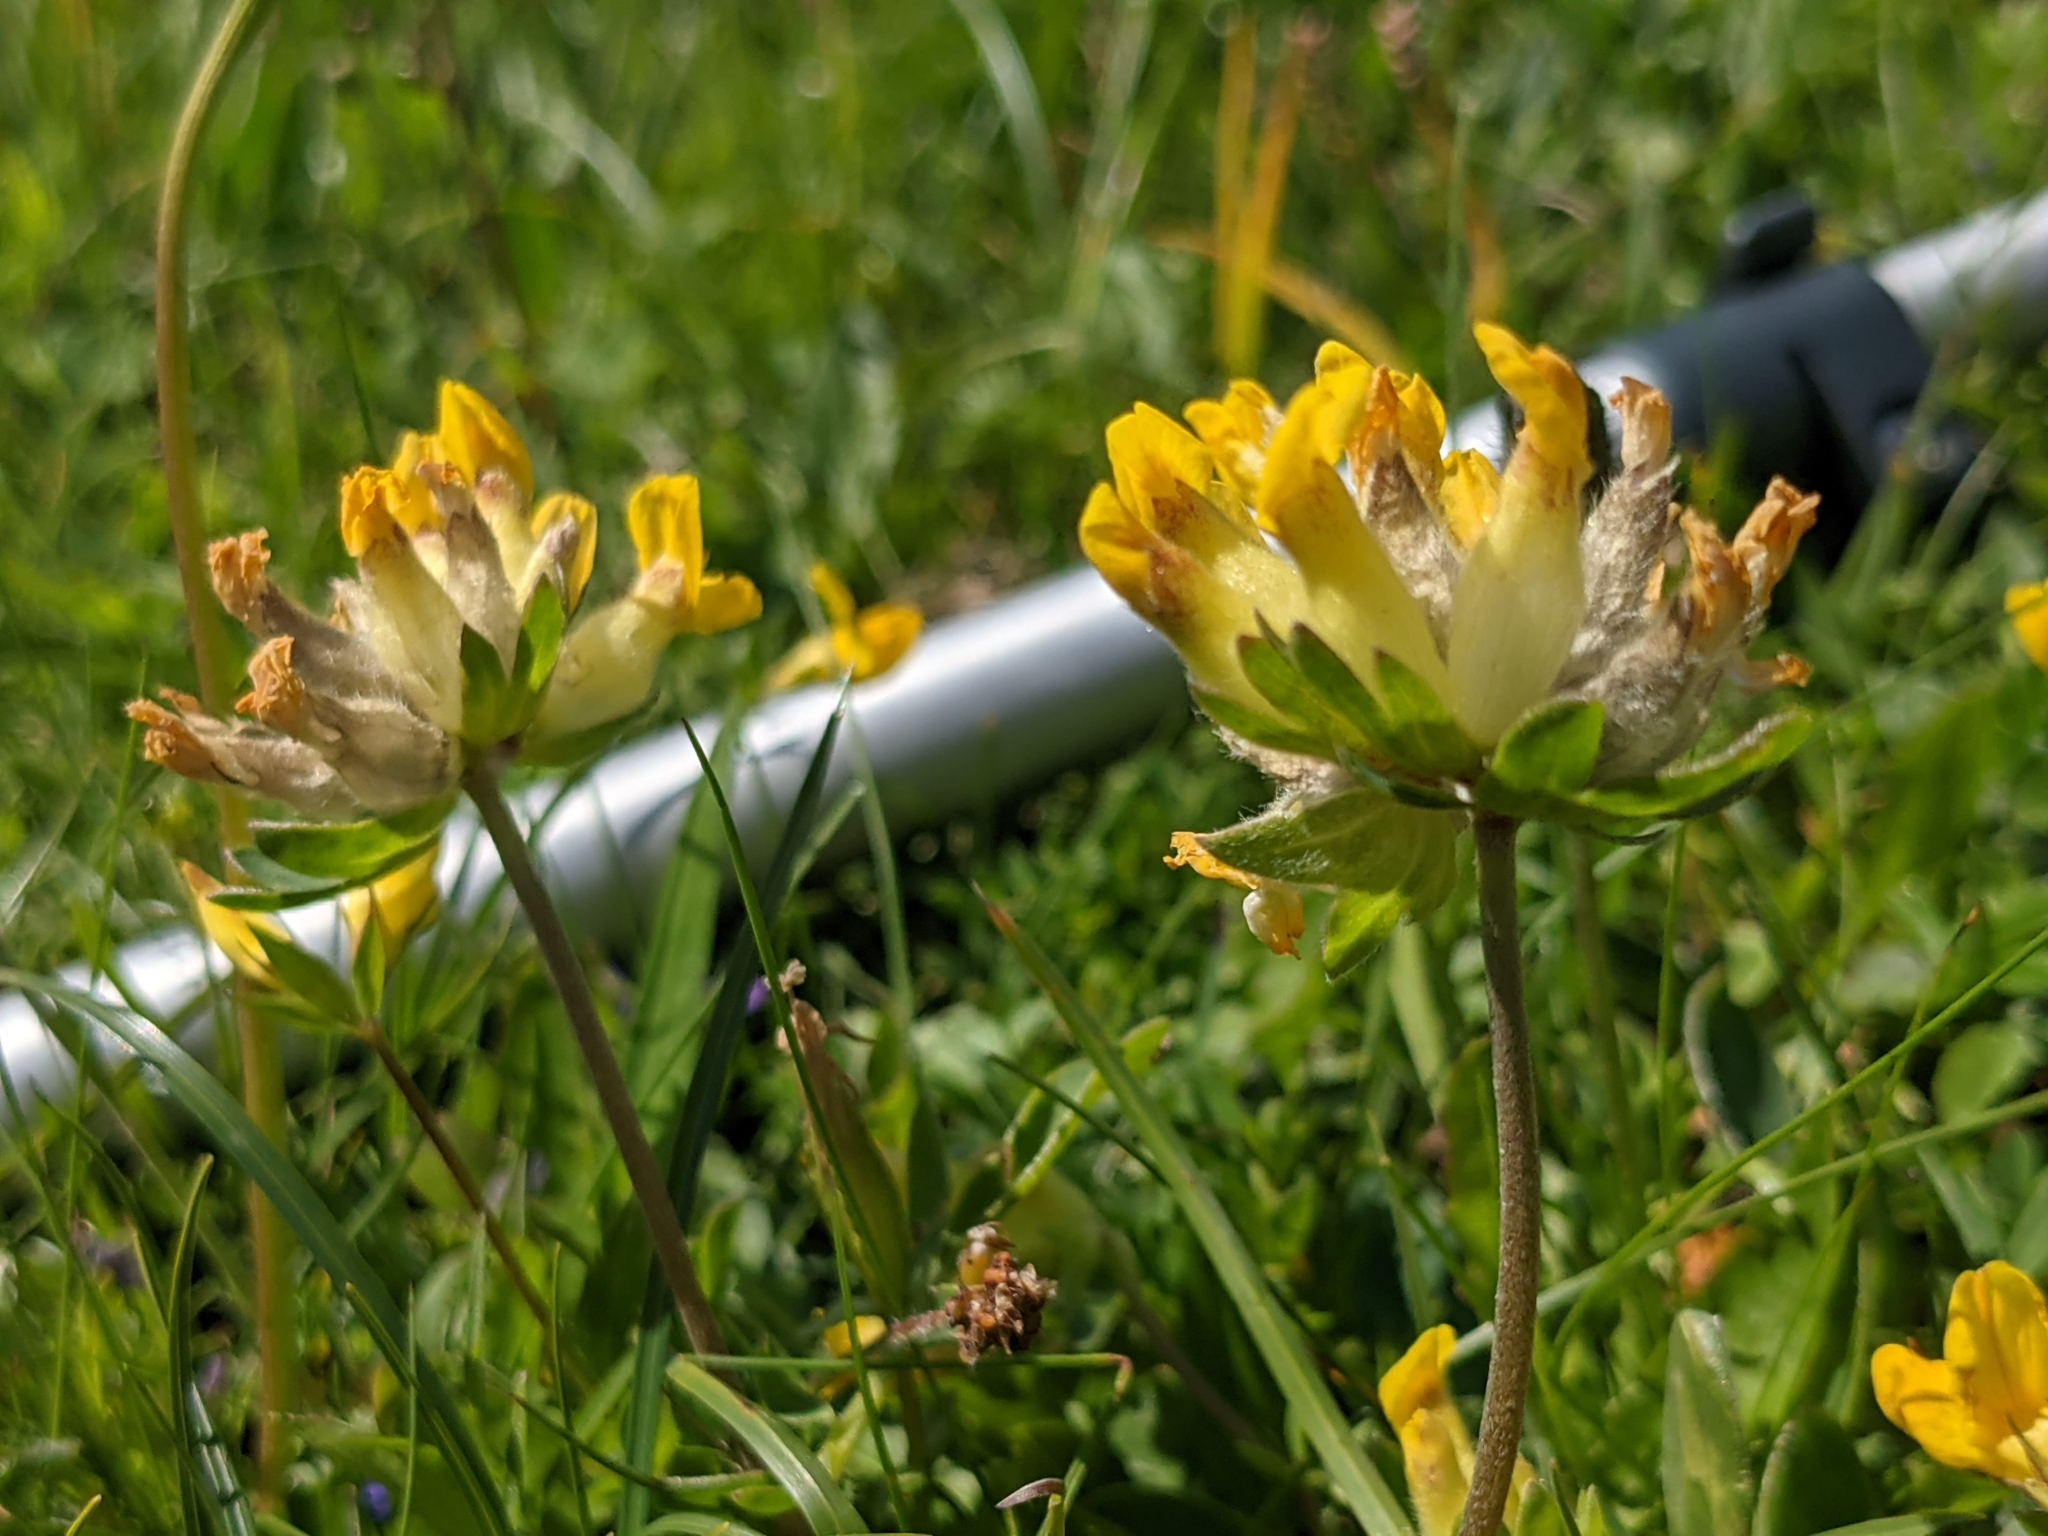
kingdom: Plantae
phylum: Tracheophyta
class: Magnoliopsida
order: Fabales
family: Fabaceae
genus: Anthyllis
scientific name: Anthyllis vulneraria
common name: Kidney vetch
